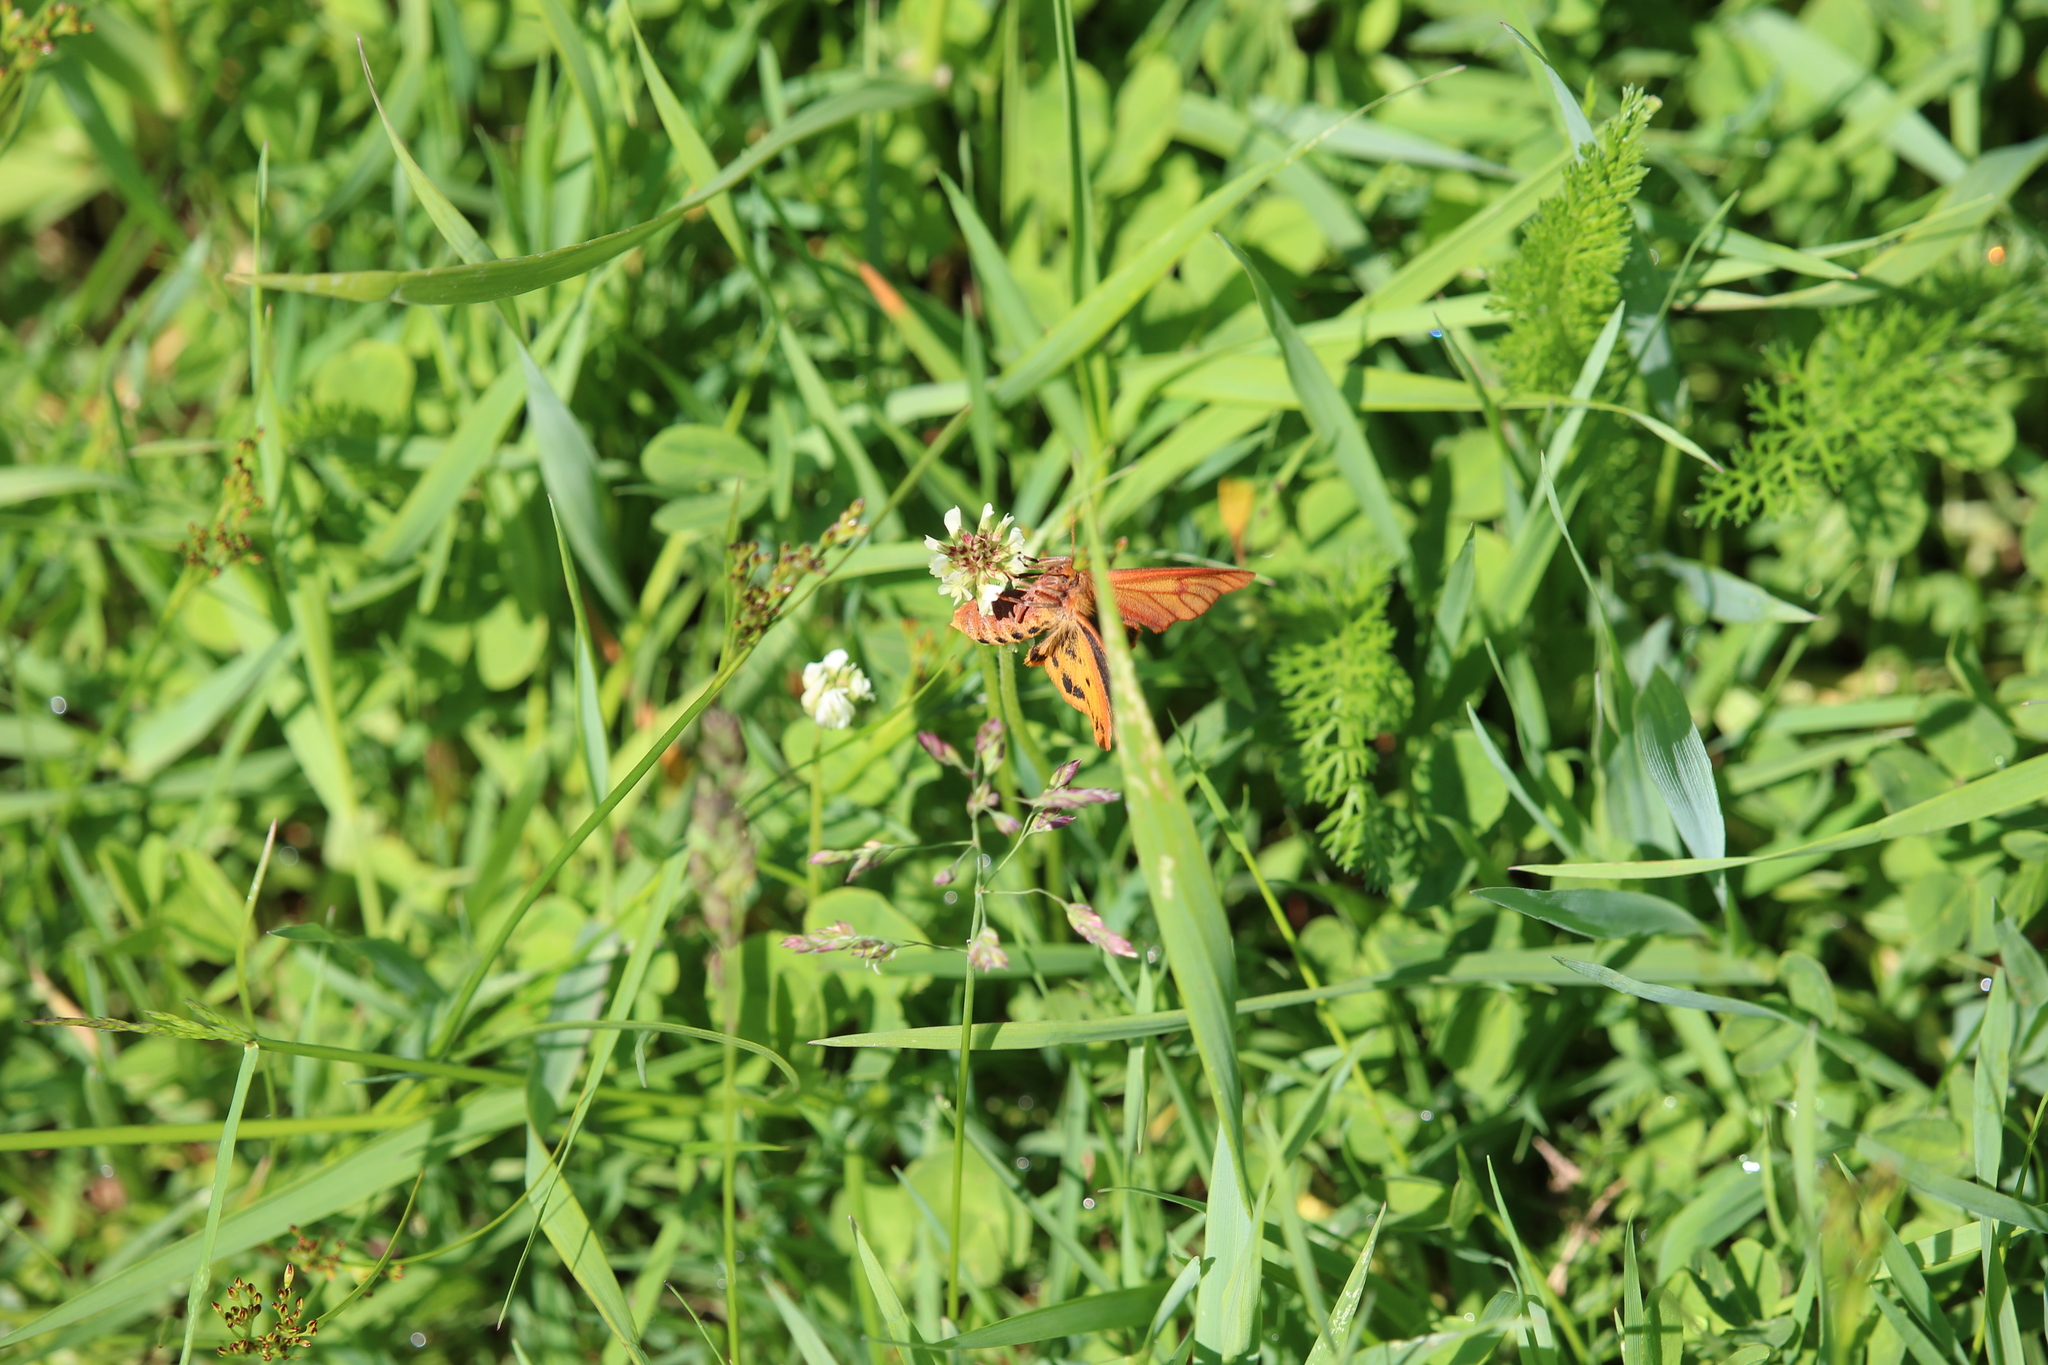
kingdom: Animalia
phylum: Arthropoda
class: Insecta
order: Lepidoptera
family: Erebidae
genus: Diacrisia
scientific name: Diacrisia sannio
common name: Clouded buff
